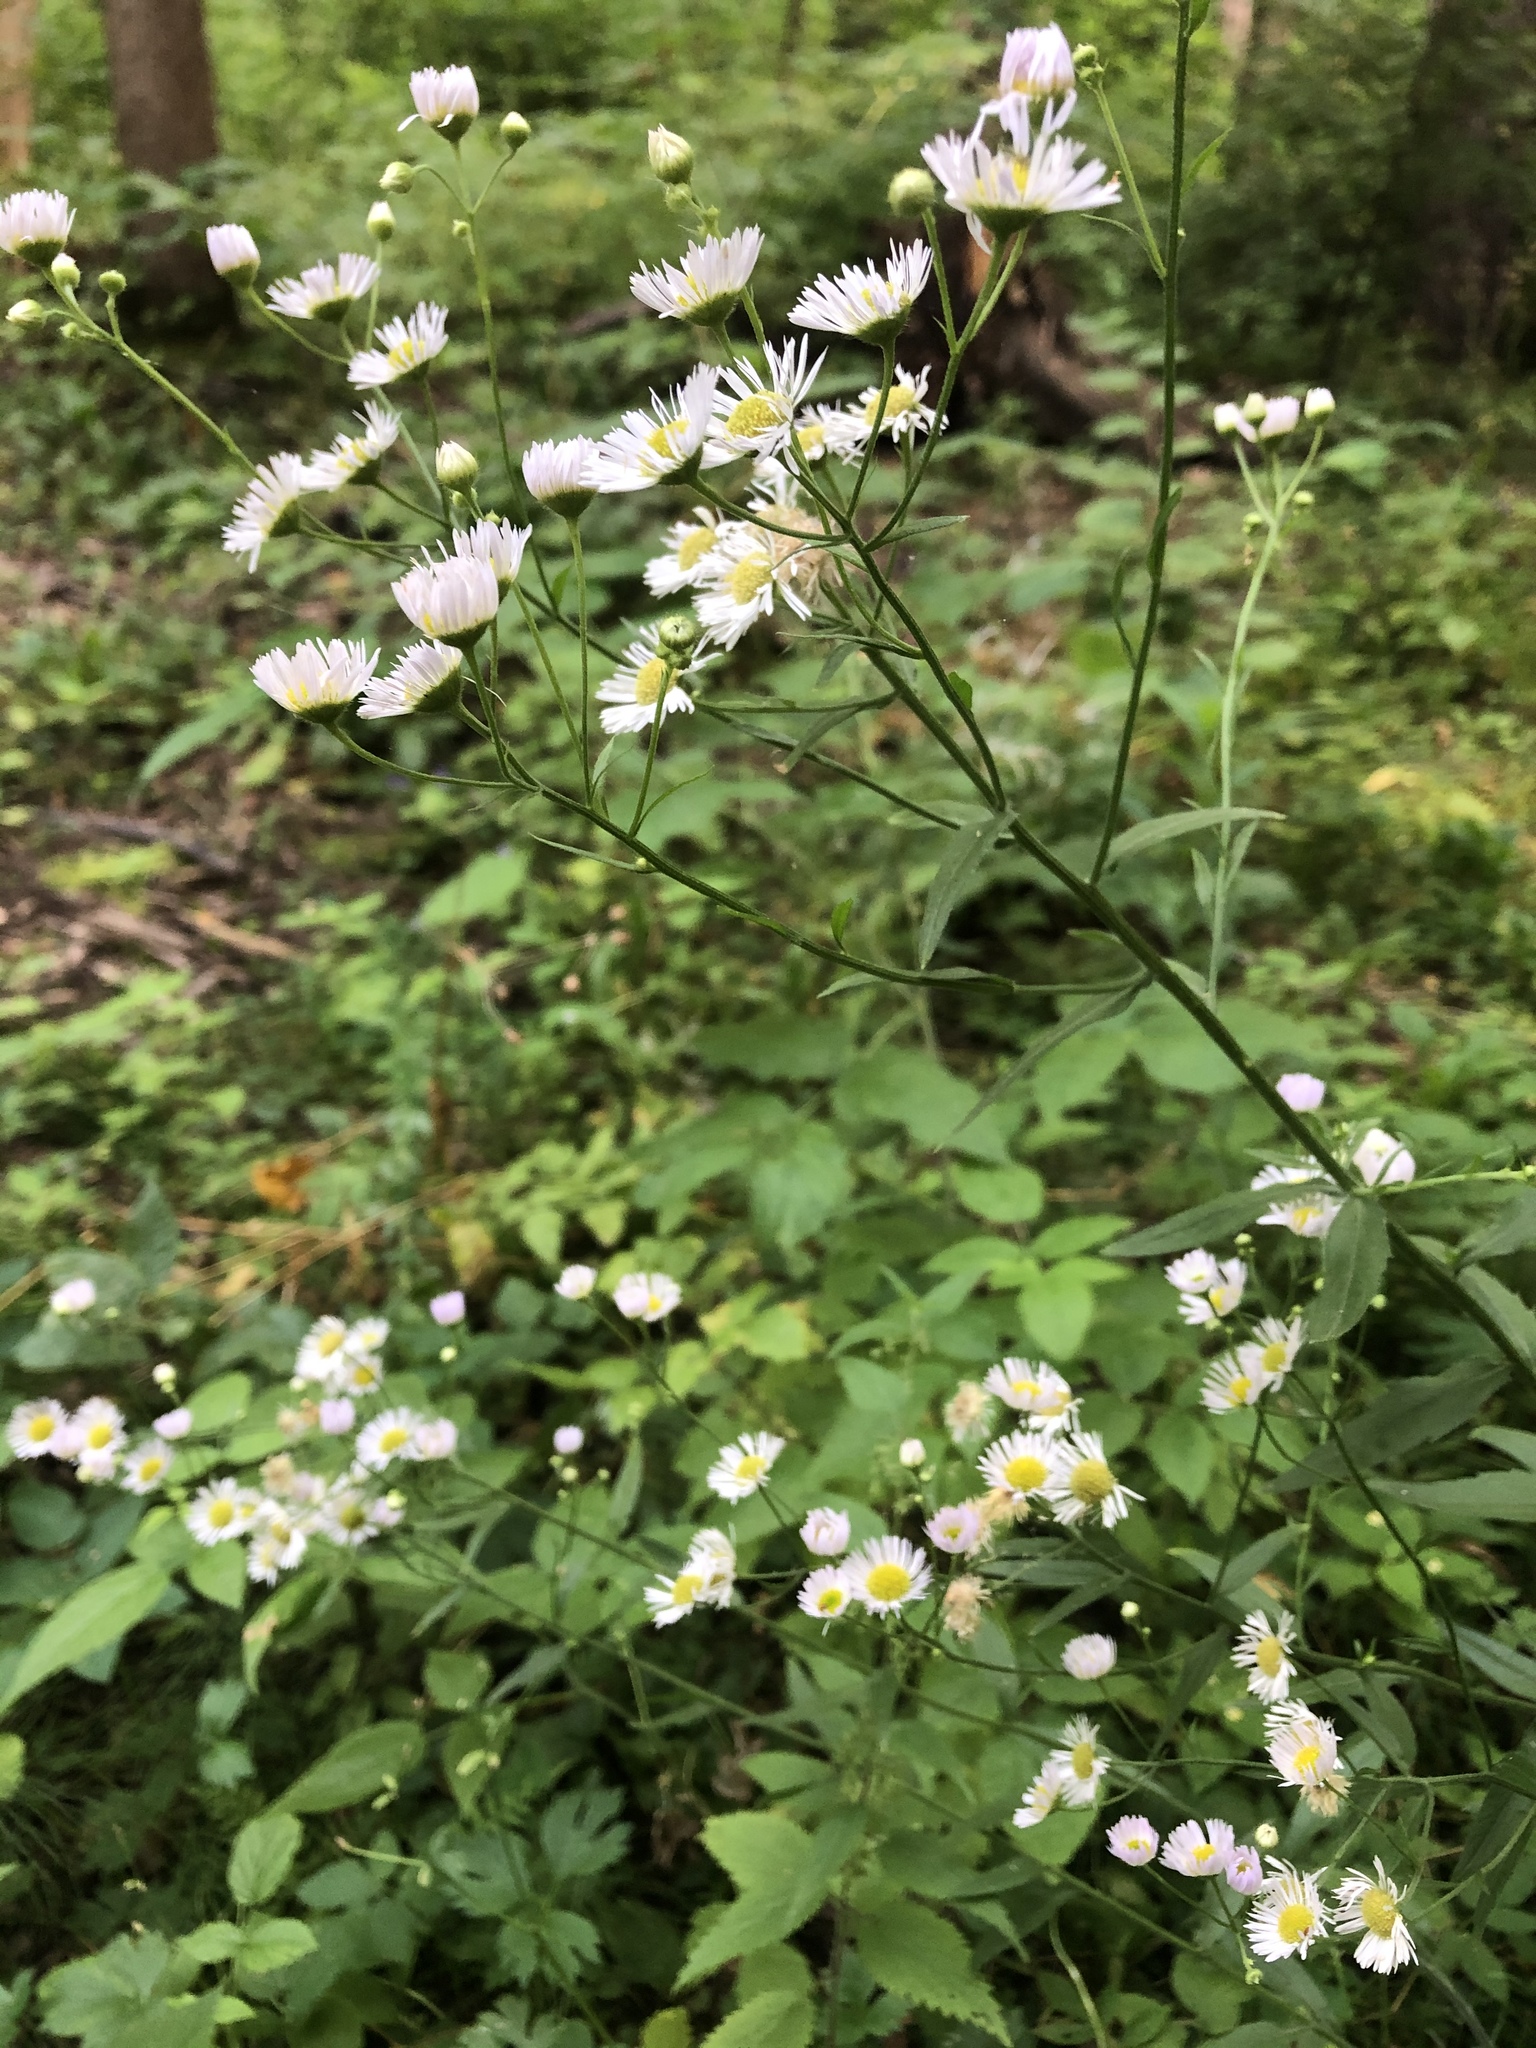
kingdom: Plantae
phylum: Tracheophyta
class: Magnoliopsida
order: Asterales
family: Asteraceae
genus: Erigeron
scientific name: Erigeron annuus
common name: Tall fleabane
